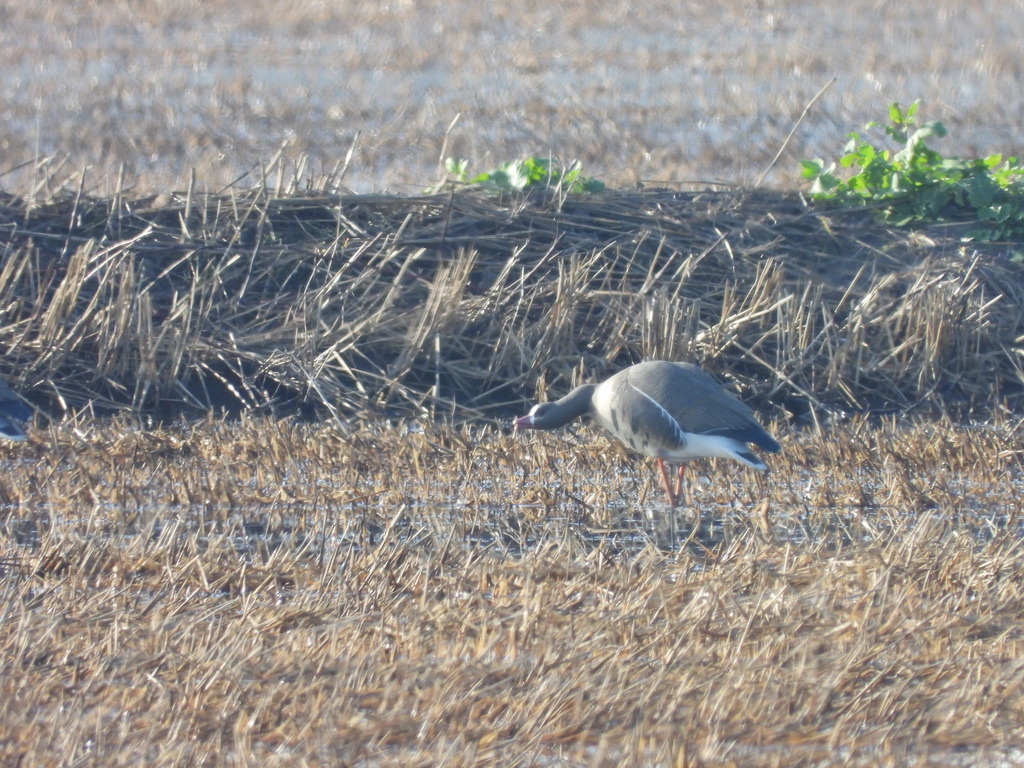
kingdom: Animalia
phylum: Chordata
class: Aves
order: Anseriformes
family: Anatidae
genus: Anser
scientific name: Anser albifrons
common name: Greater white-fronted goose
